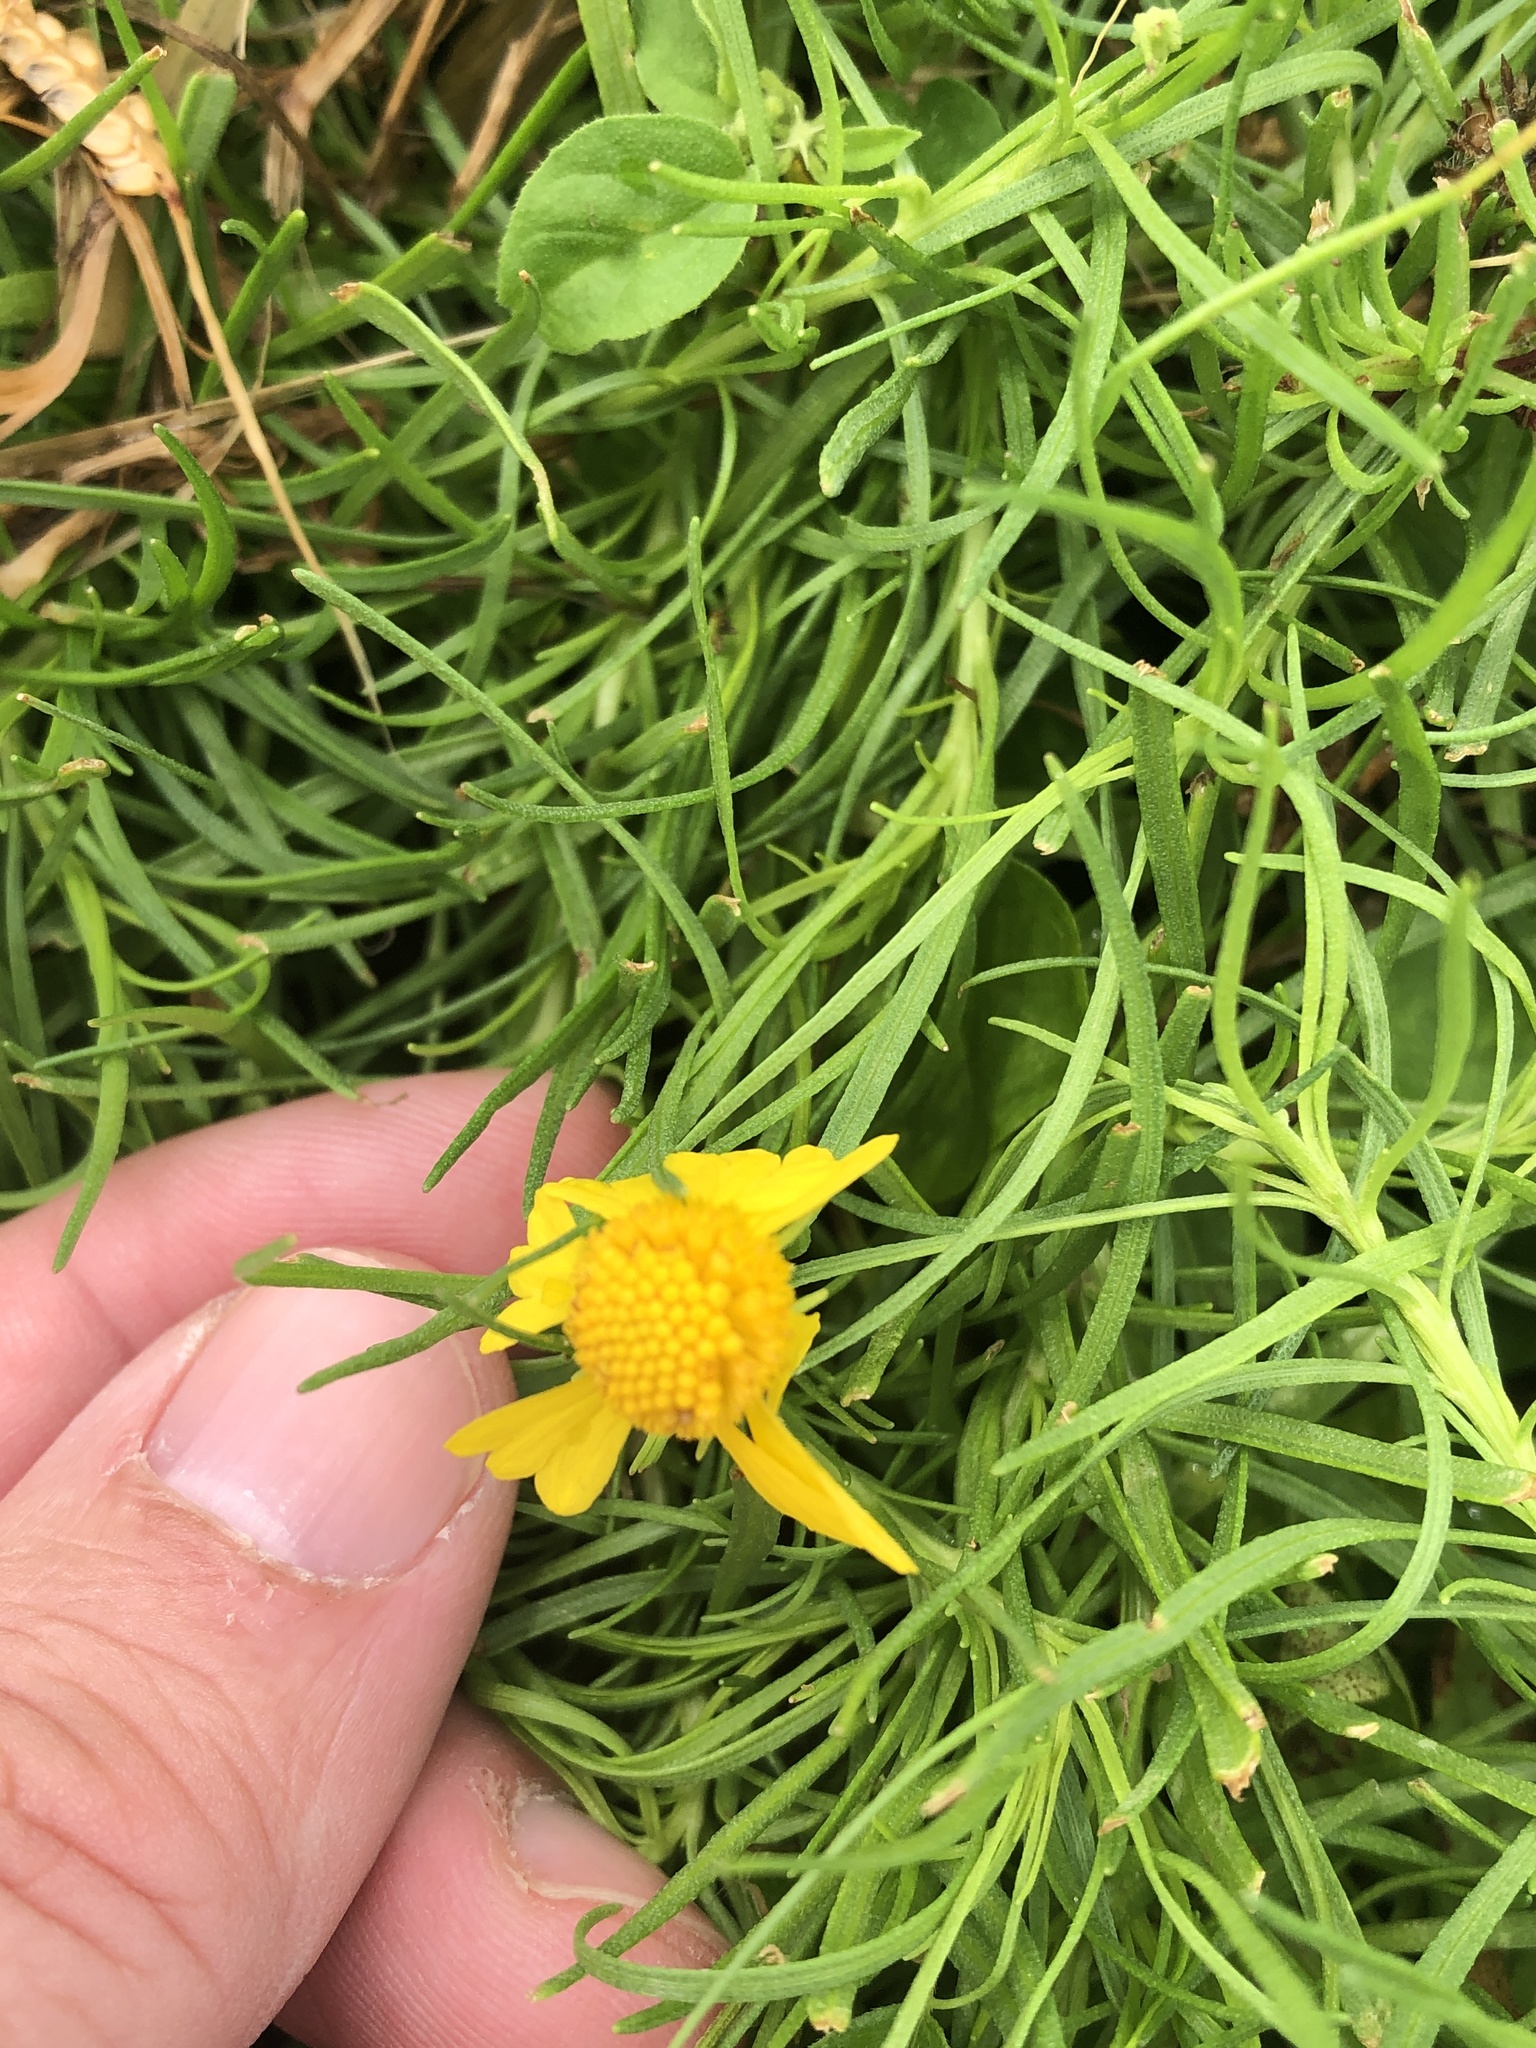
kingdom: Plantae
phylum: Tracheophyta
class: Magnoliopsida
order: Asterales
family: Asteraceae
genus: Helenium
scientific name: Helenium amarum
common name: Bitter sneezeweed
